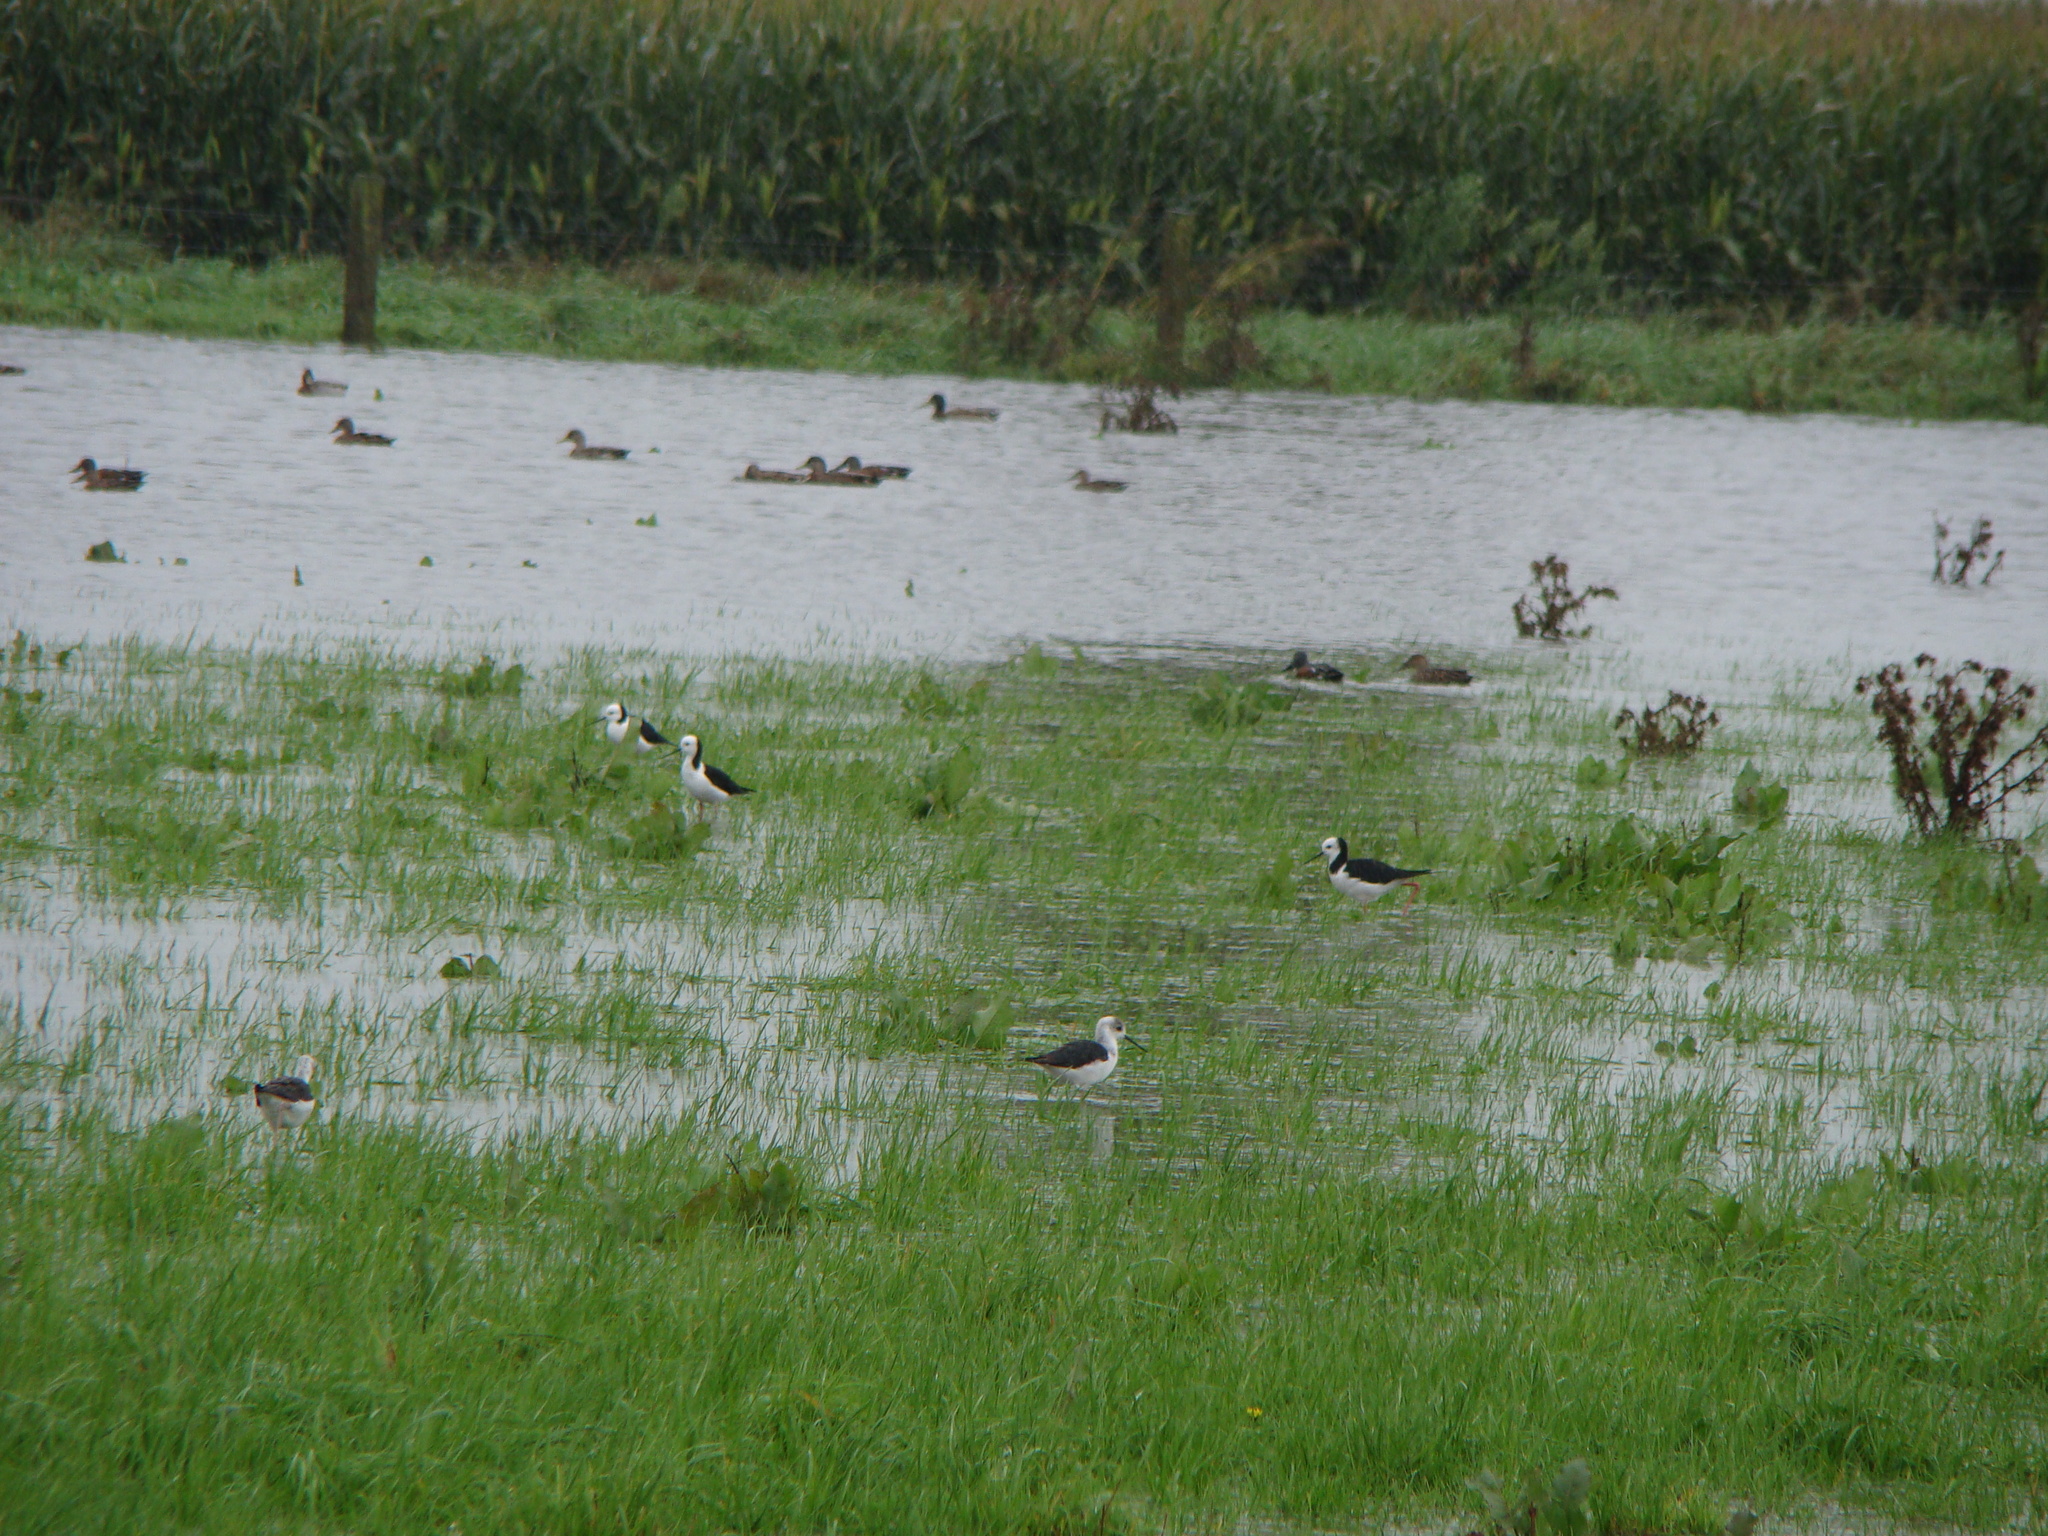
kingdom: Animalia
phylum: Chordata
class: Aves
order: Charadriiformes
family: Recurvirostridae
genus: Himantopus
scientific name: Himantopus leucocephalus
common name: White-headed stilt
